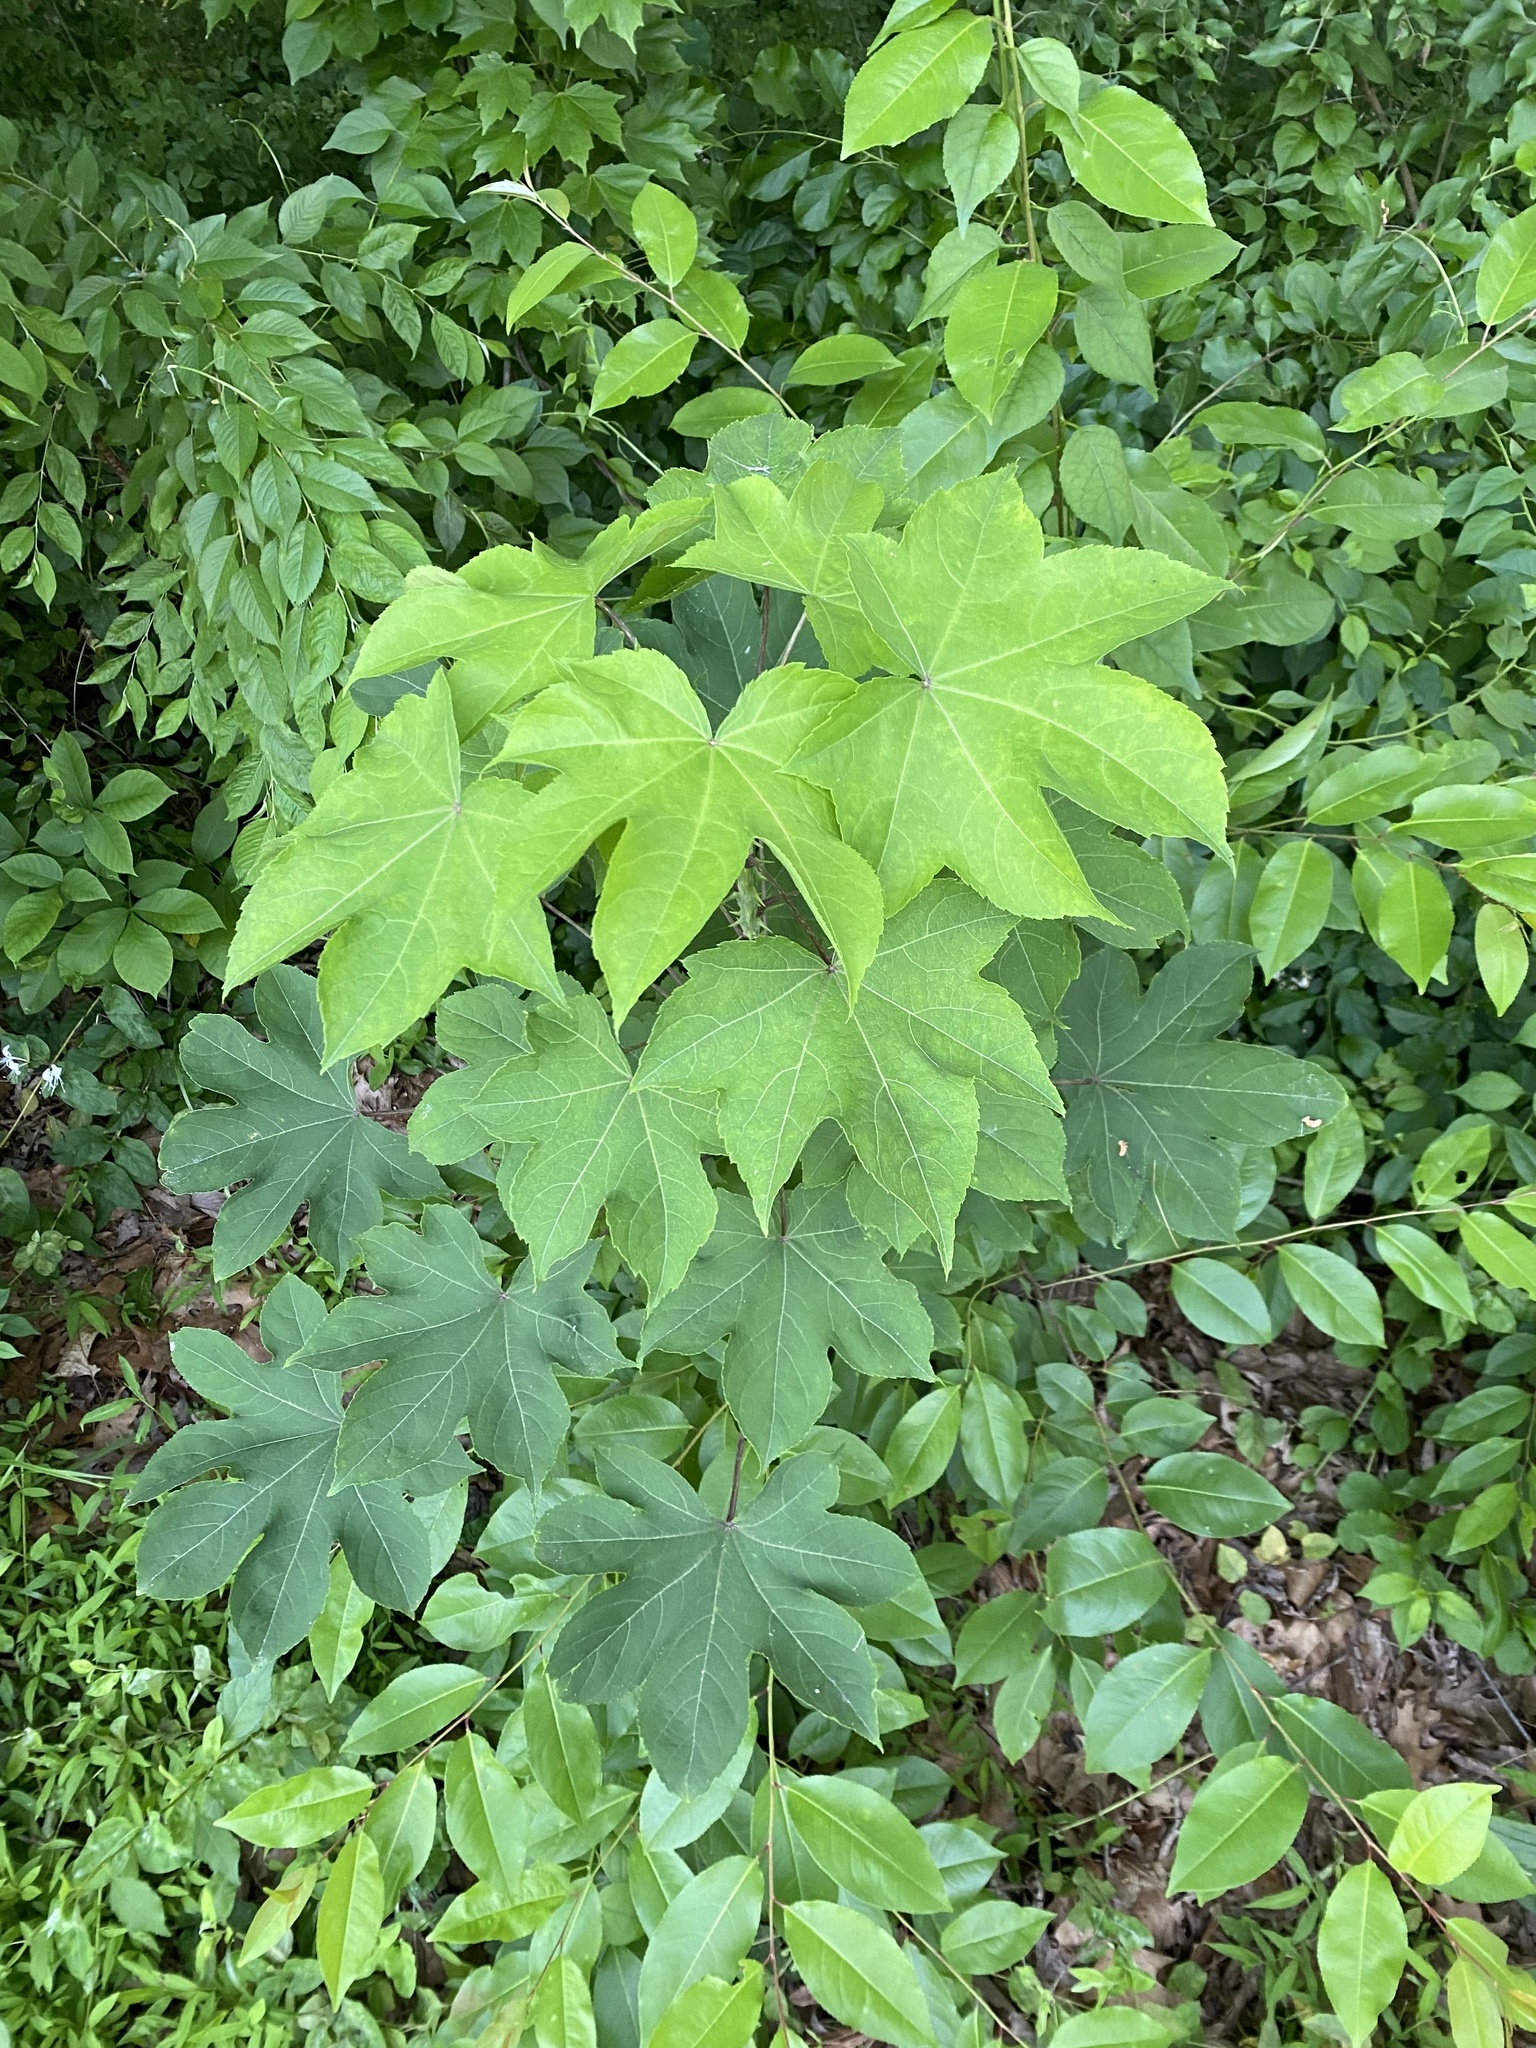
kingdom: Plantae
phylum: Tracheophyta
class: Magnoliopsida
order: Apiales
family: Araliaceae
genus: Kalopanax
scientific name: Kalopanax septemlobus
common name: Castor aralia
